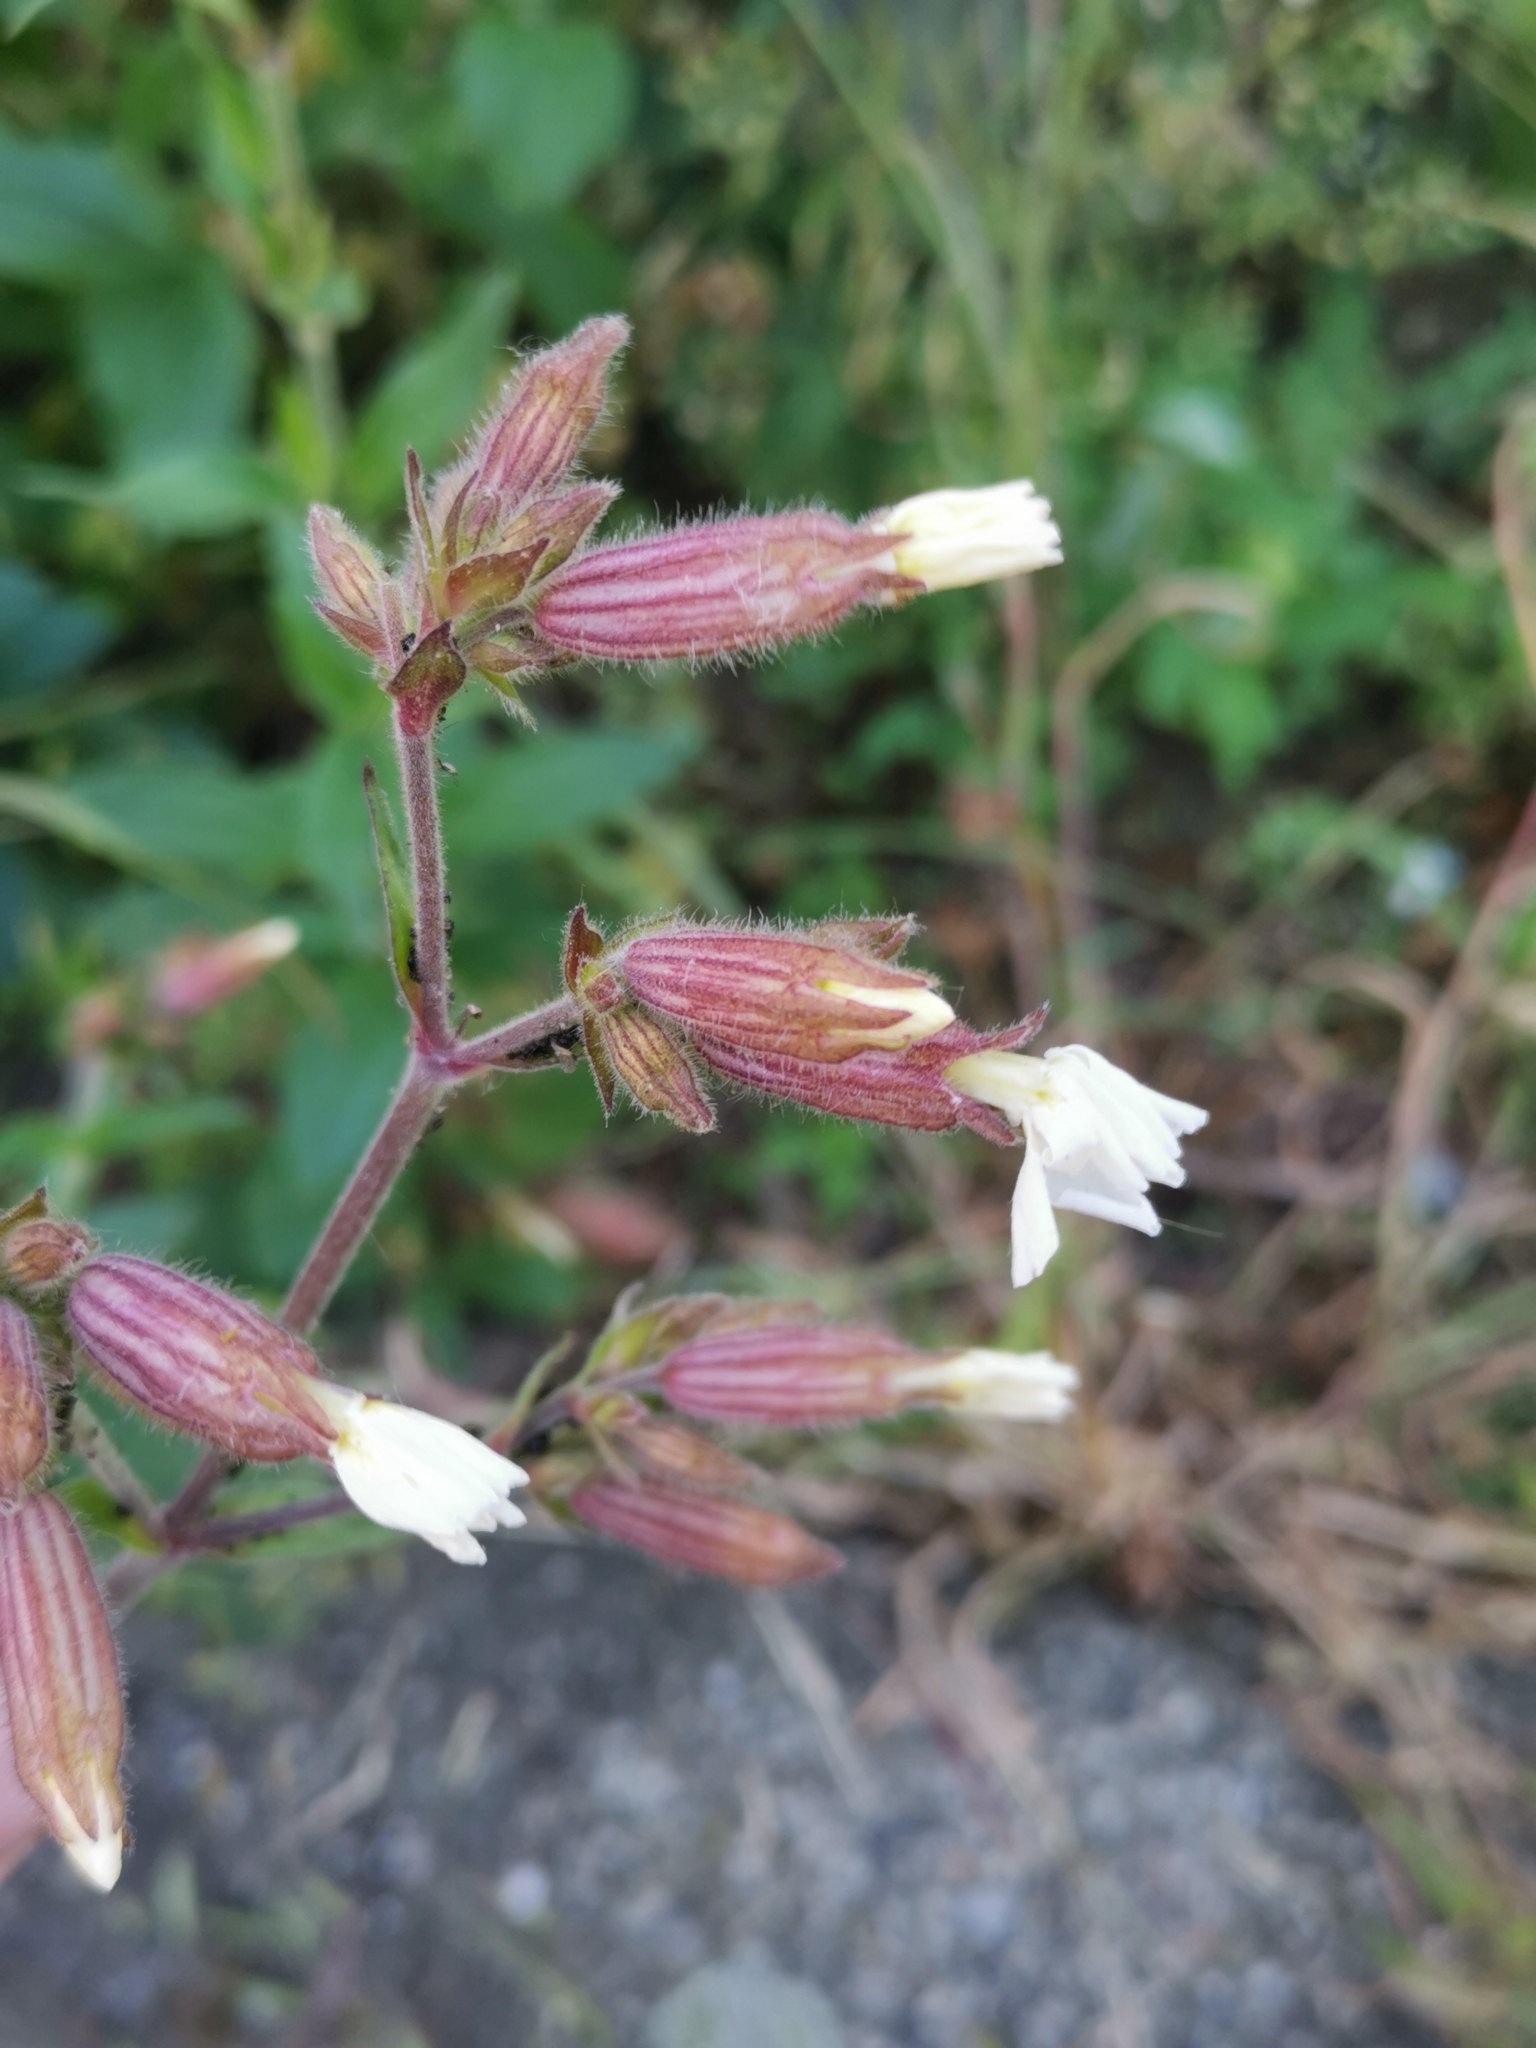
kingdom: Plantae
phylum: Tracheophyta
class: Magnoliopsida
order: Caryophyllales
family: Caryophyllaceae
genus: Silene
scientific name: Silene latifolia
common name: White campion
